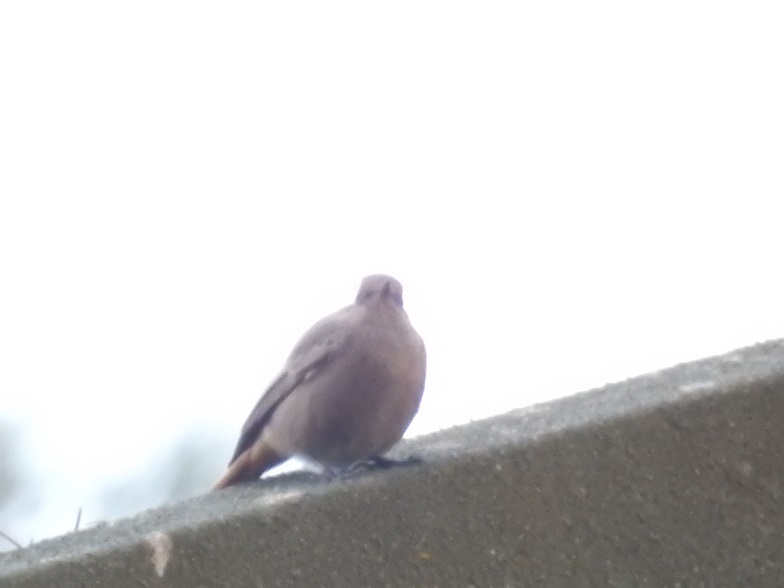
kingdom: Animalia
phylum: Chordata
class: Aves
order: Passeriformes
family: Muscicapidae
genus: Phoenicurus
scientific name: Phoenicurus ochruros
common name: Black redstart
